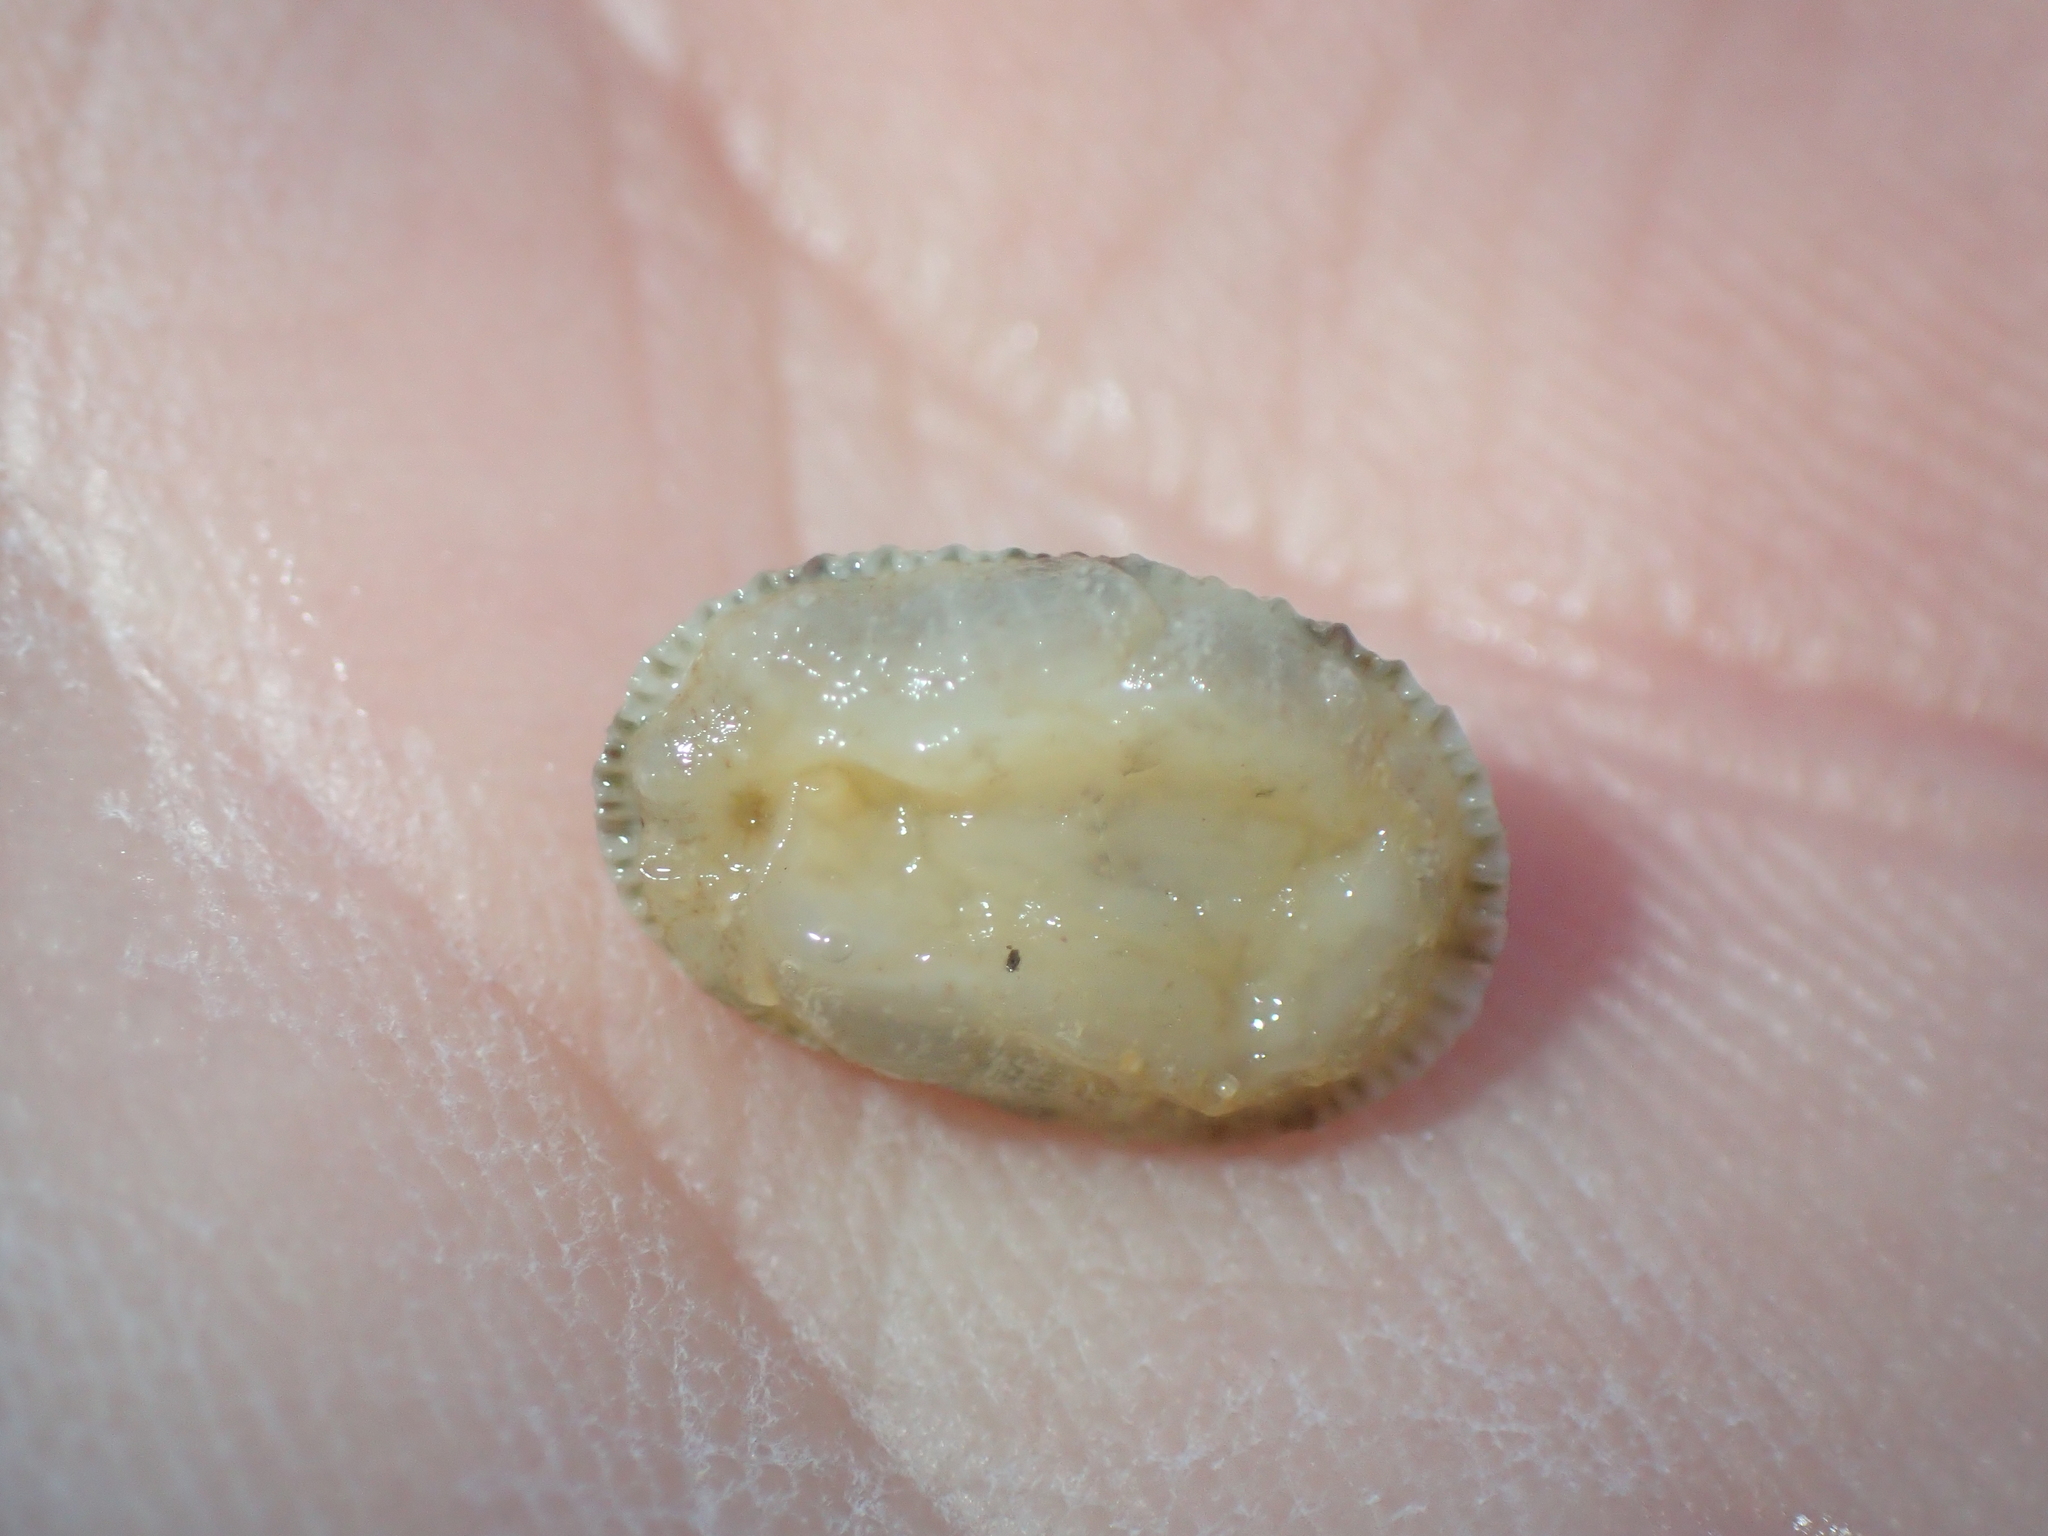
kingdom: Animalia
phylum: Mollusca
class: Gastropoda
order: Lepetellida
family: Fissurellidae
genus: Diodora
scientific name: Diodora graeca
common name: Common keyhole limpet
